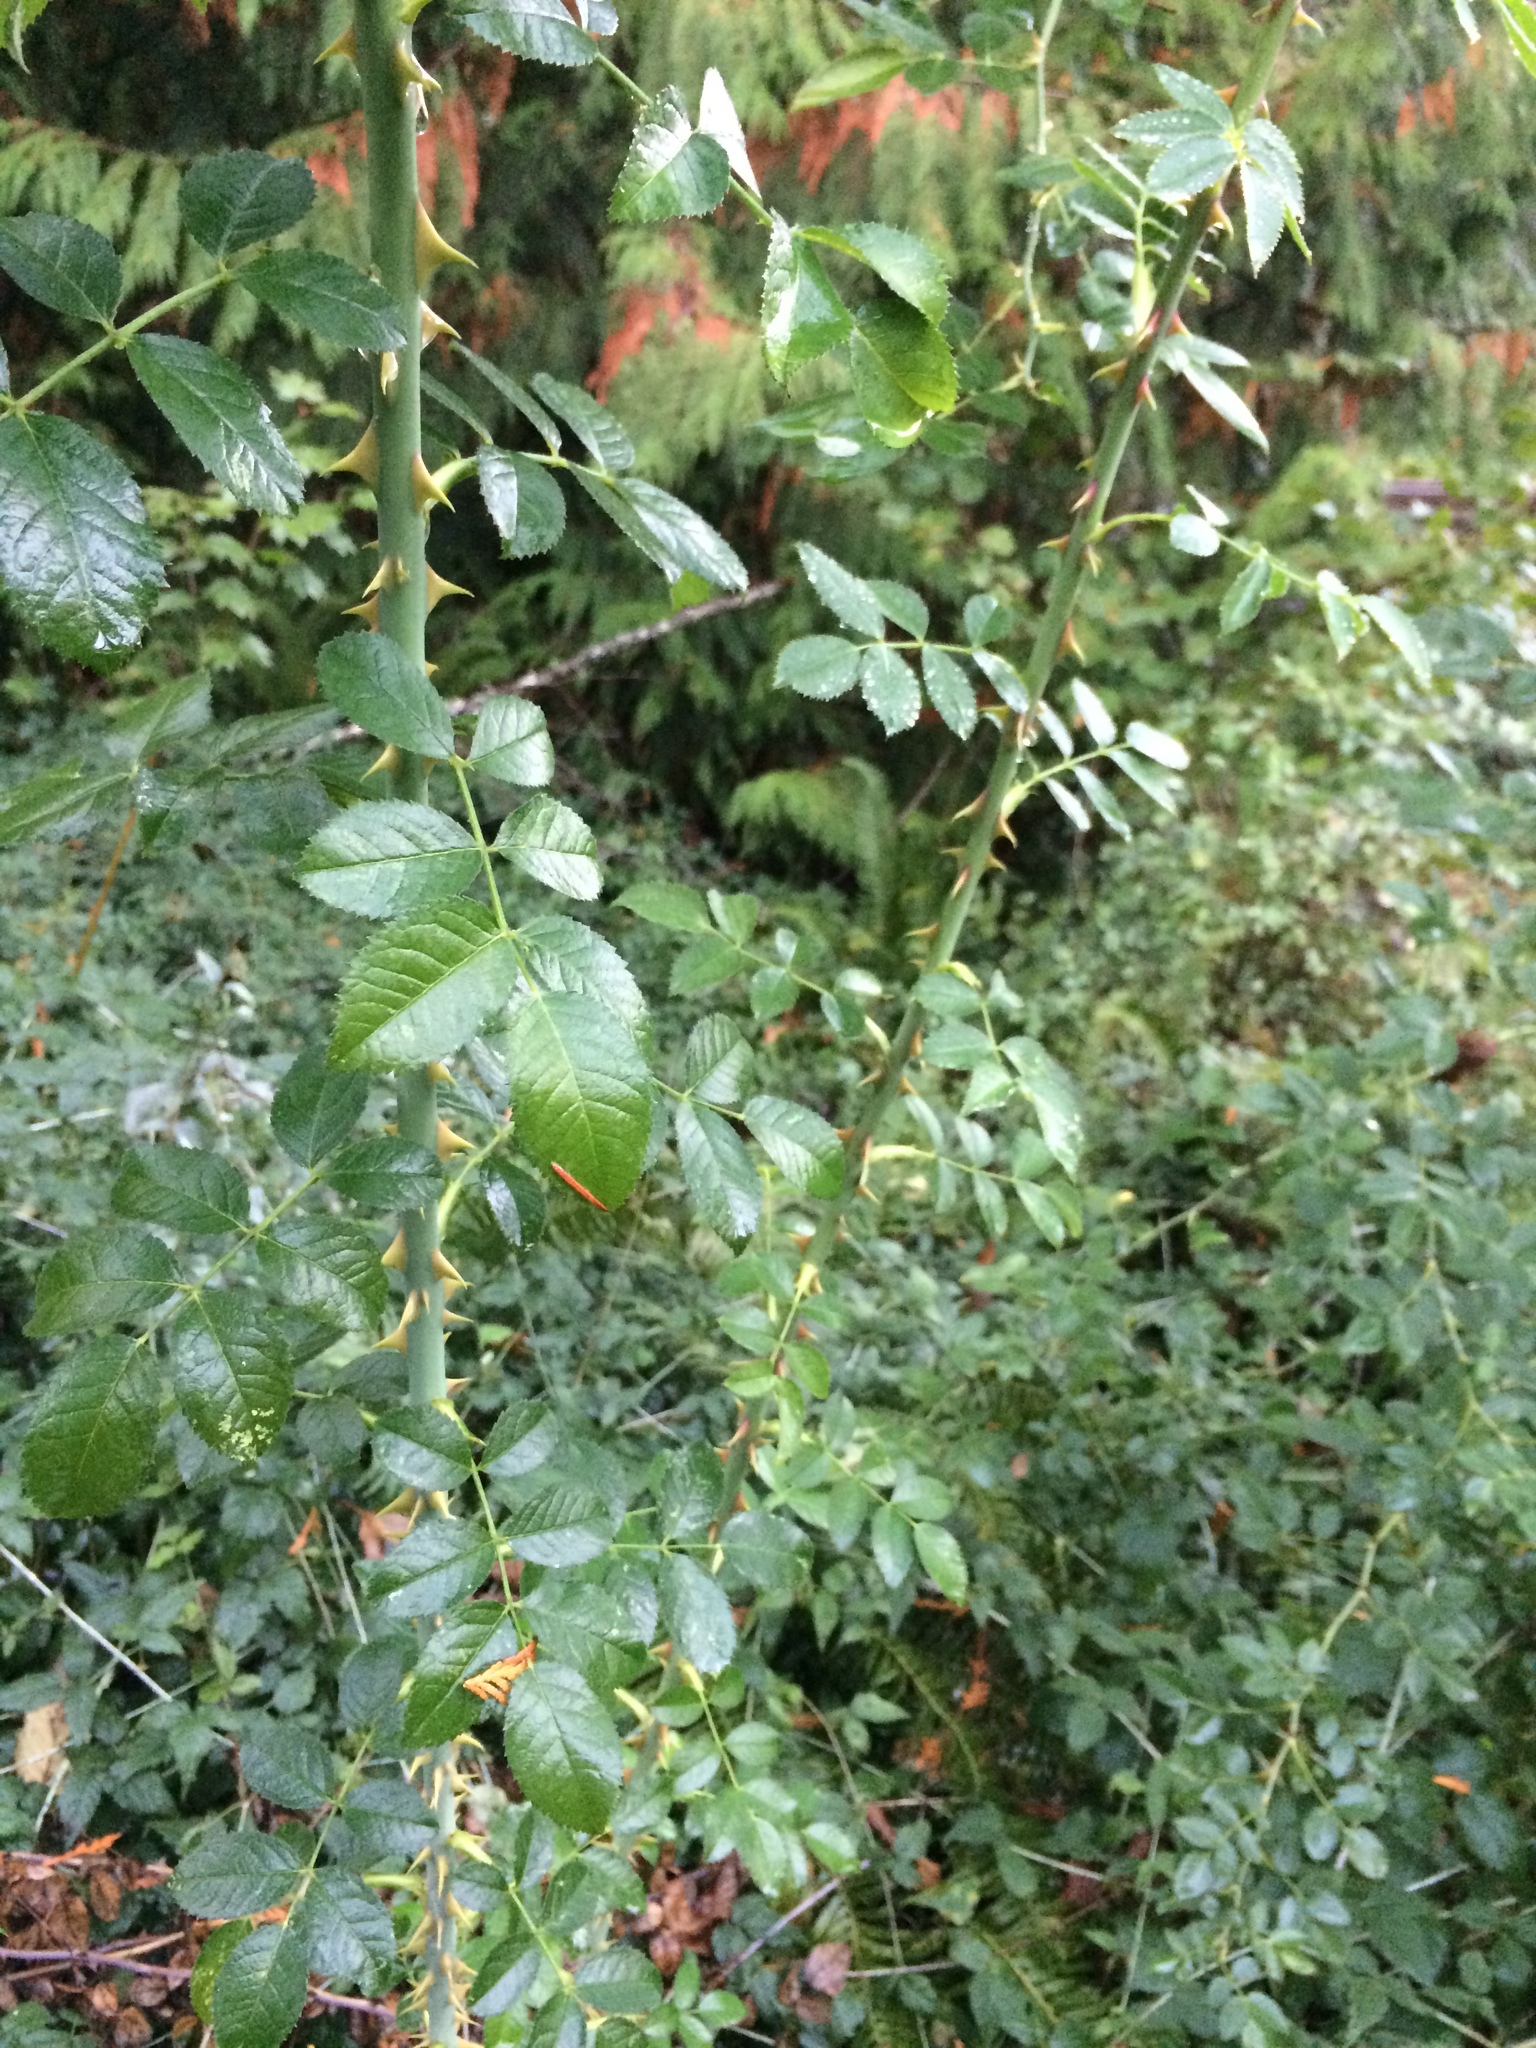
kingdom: Plantae
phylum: Tracheophyta
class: Magnoliopsida
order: Rosales
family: Rosaceae
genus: Rosa
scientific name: Rosa rubiginosa
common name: Sweet-briar
